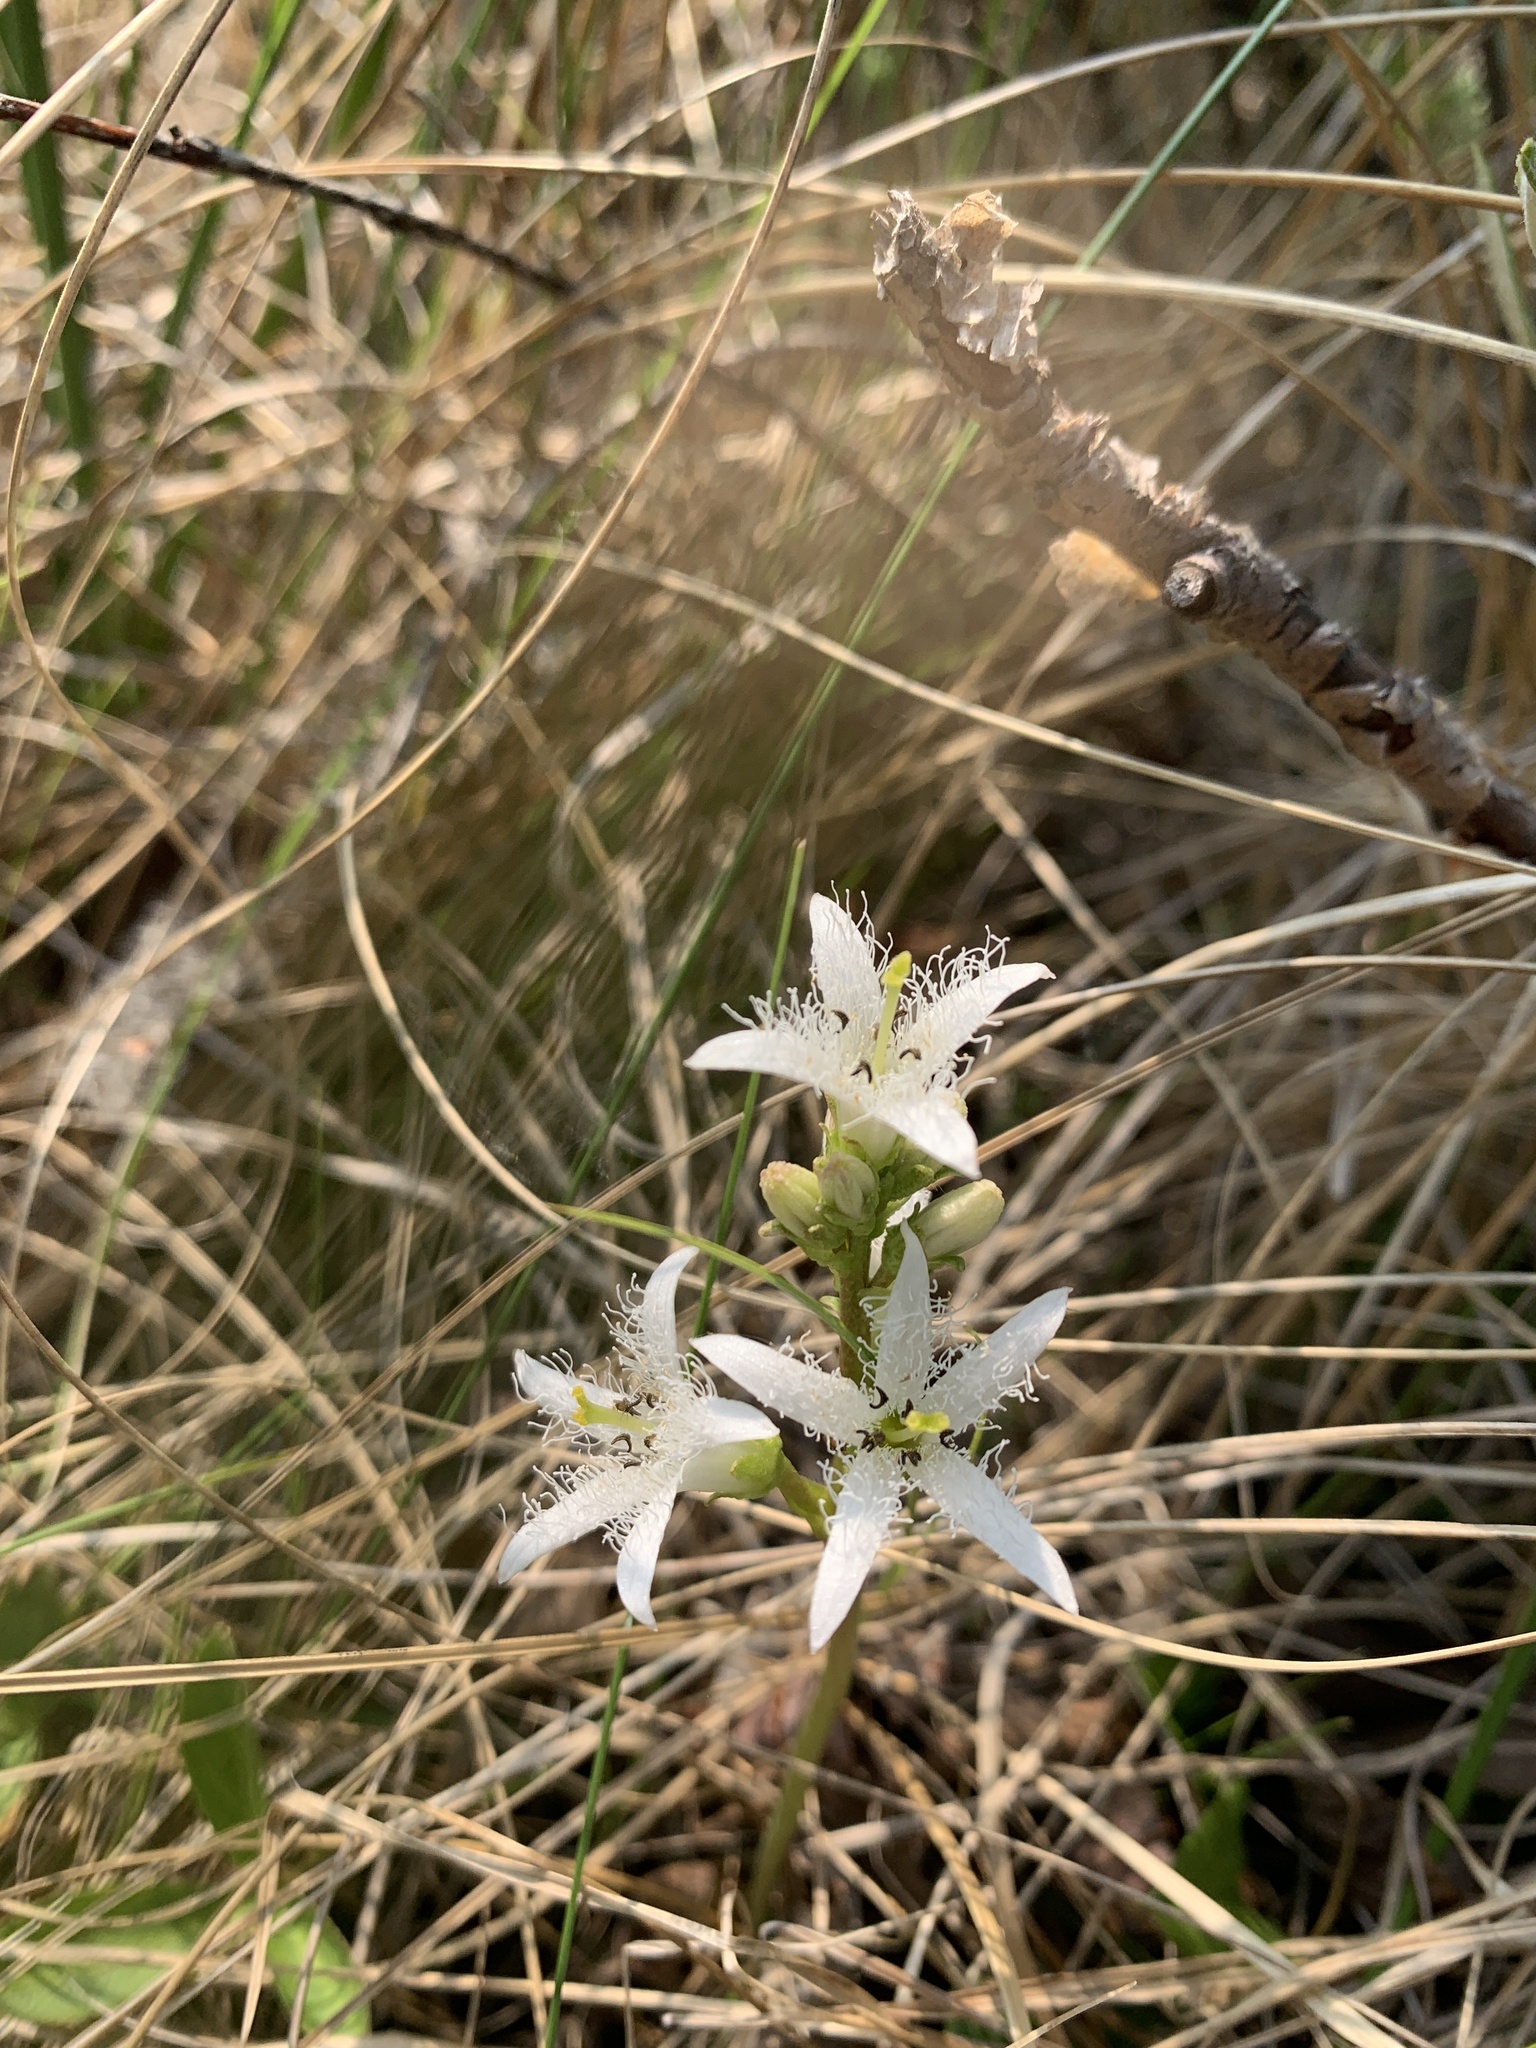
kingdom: Plantae
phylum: Tracheophyta
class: Magnoliopsida
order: Asterales
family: Menyanthaceae
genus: Menyanthes
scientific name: Menyanthes trifoliata
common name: Bogbean
